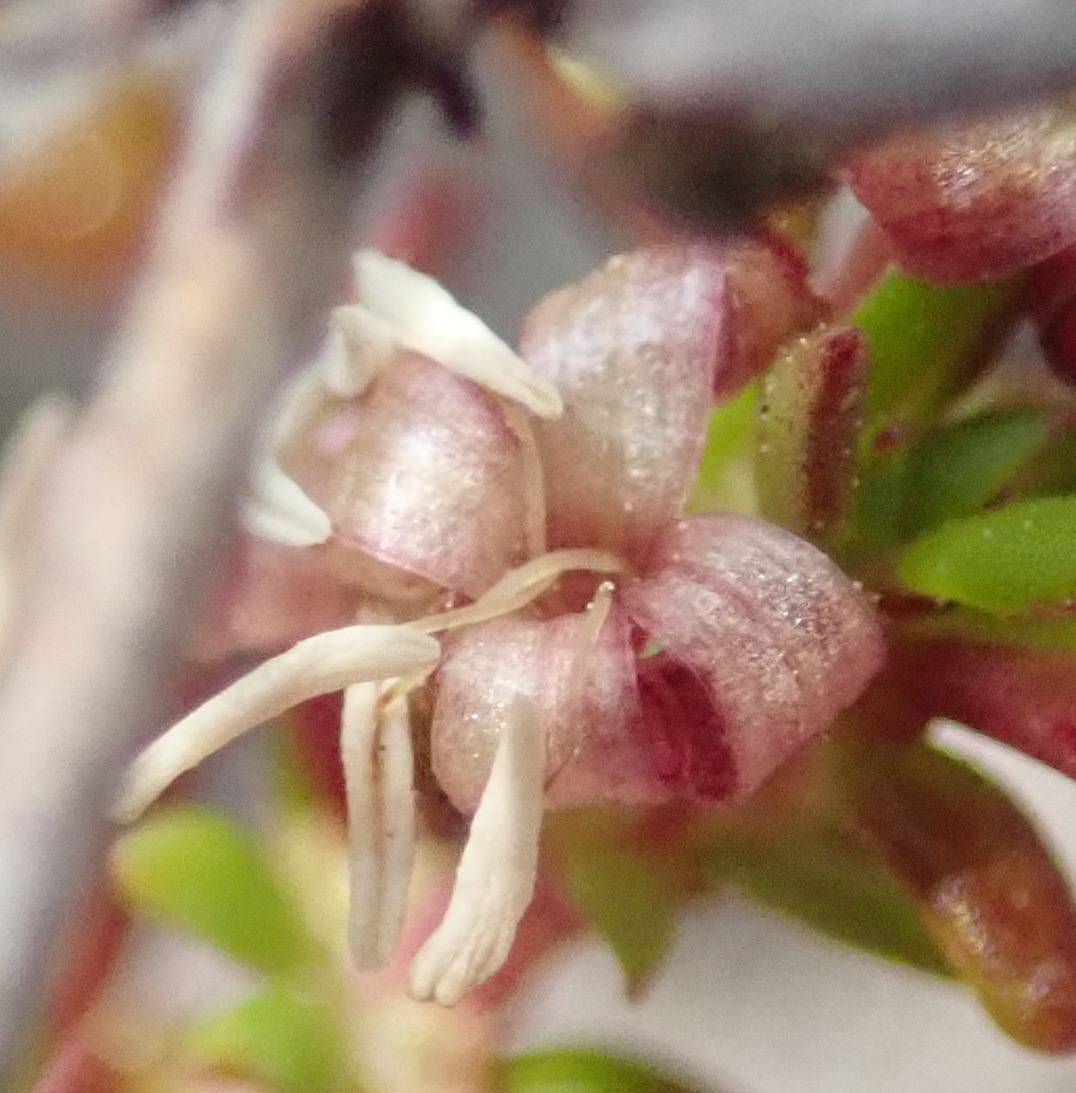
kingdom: Plantae
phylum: Tracheophyta
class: Magnoliopsida
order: Gentianales
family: Rubiaceae
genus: Anthospermum
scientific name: Anthospermum prostratum
